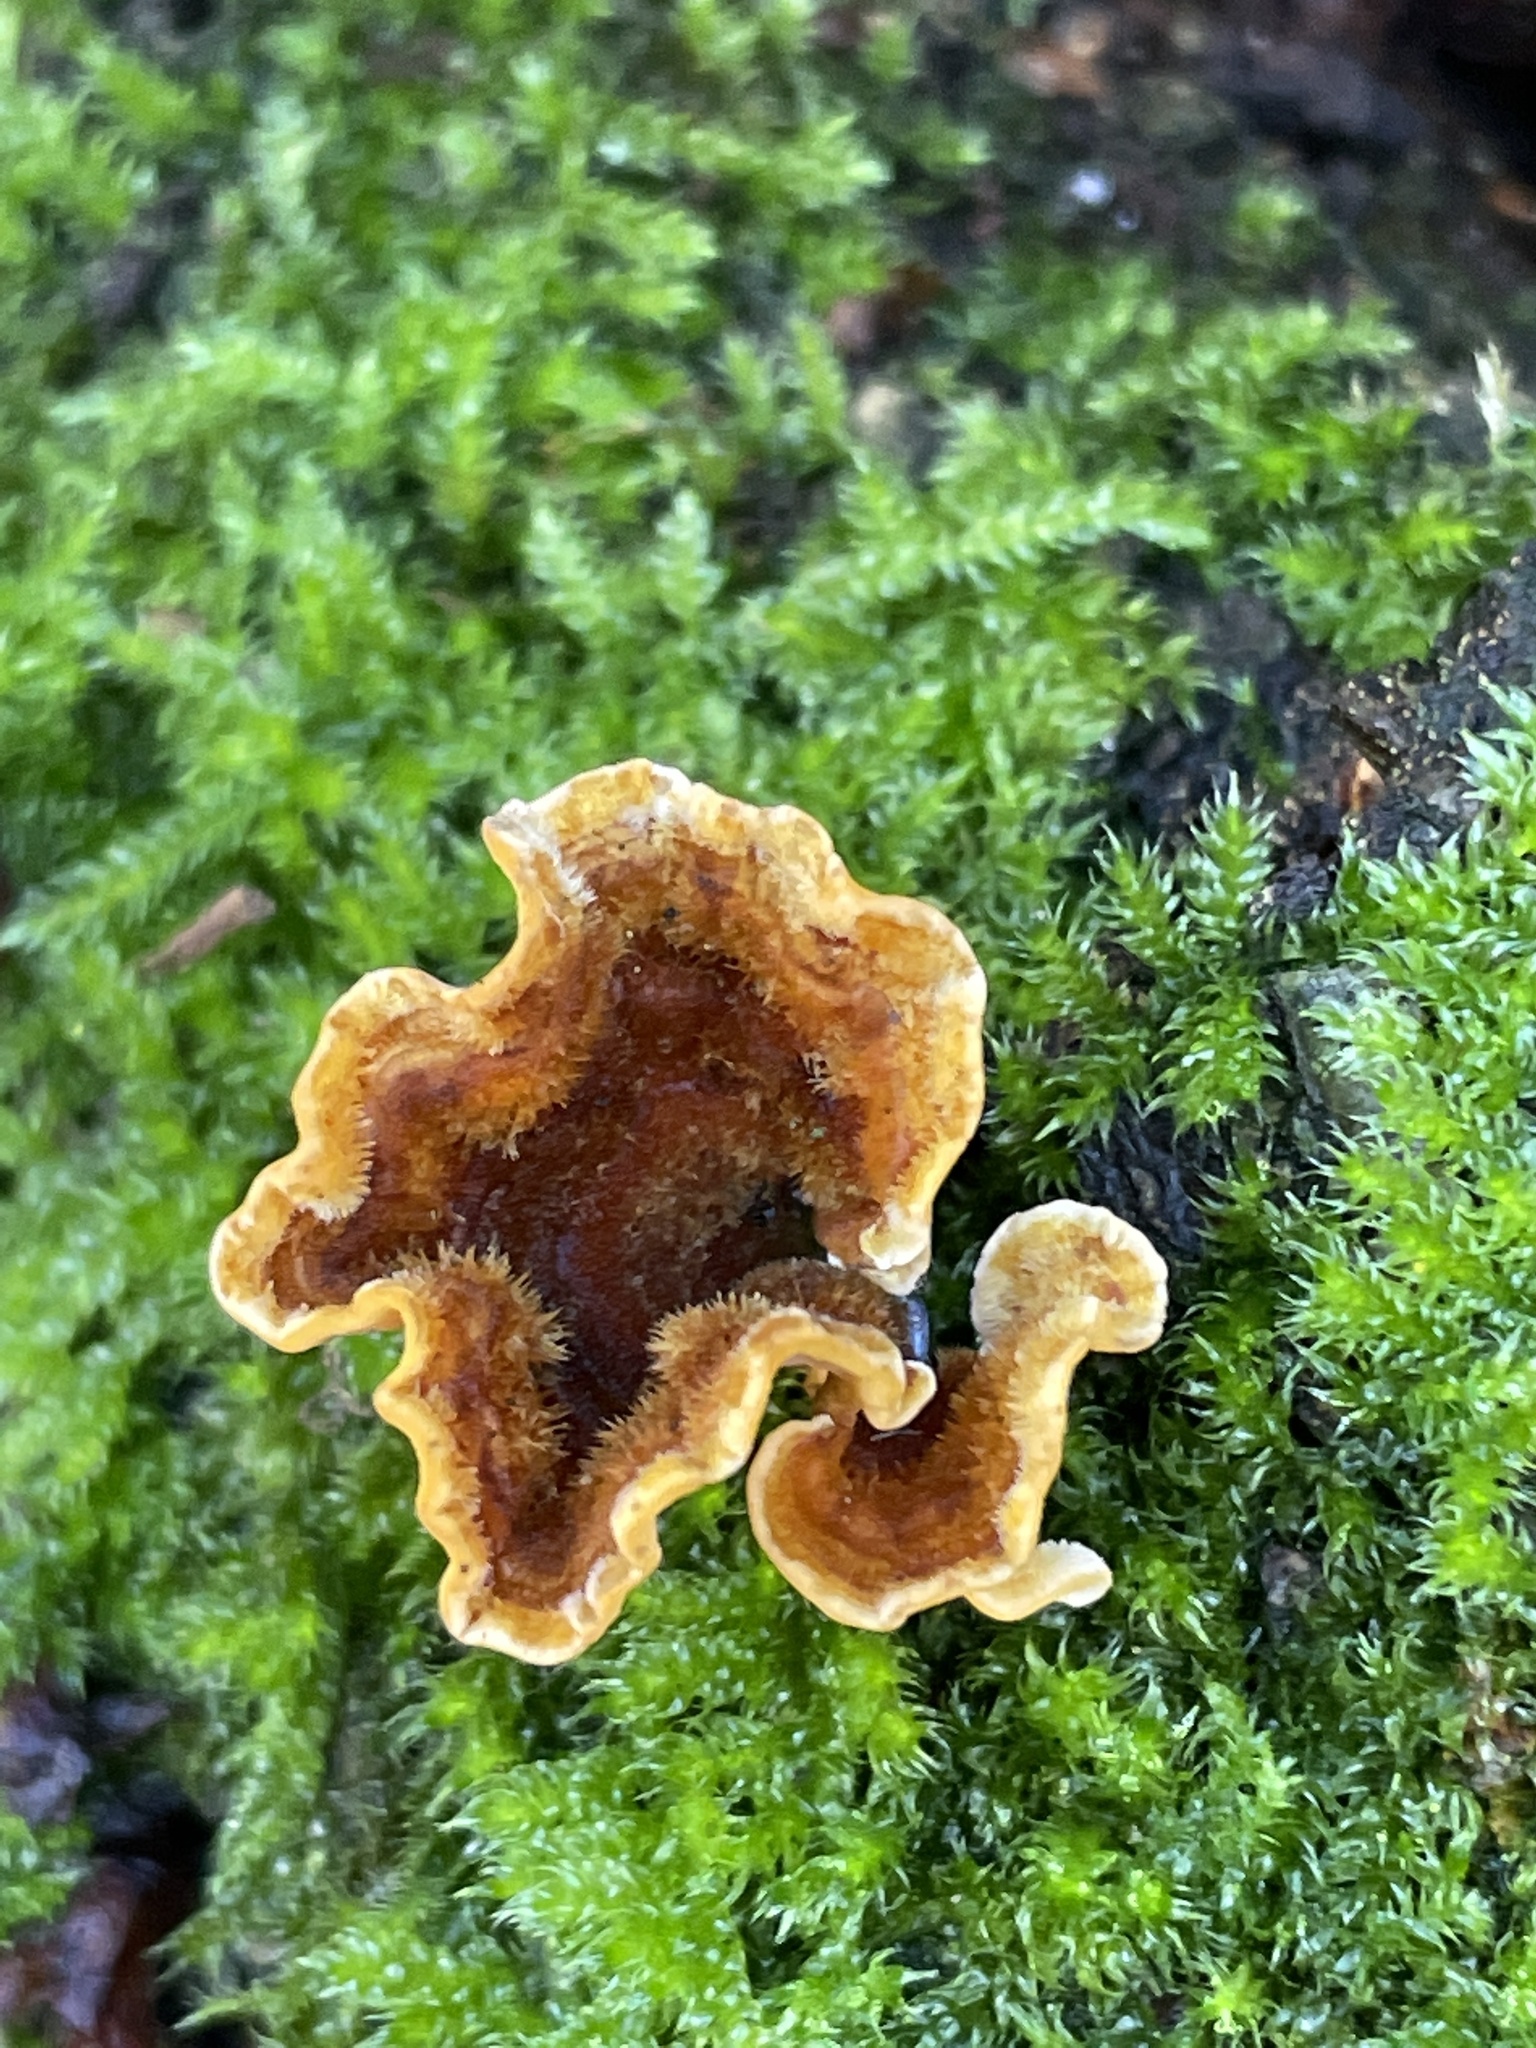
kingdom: Fungi
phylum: Basidiomycota
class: Agaricomycetes
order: Russulales
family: Stereaceae
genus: Stereum
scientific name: Stereum hirsutum
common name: Hairy curtain crust
